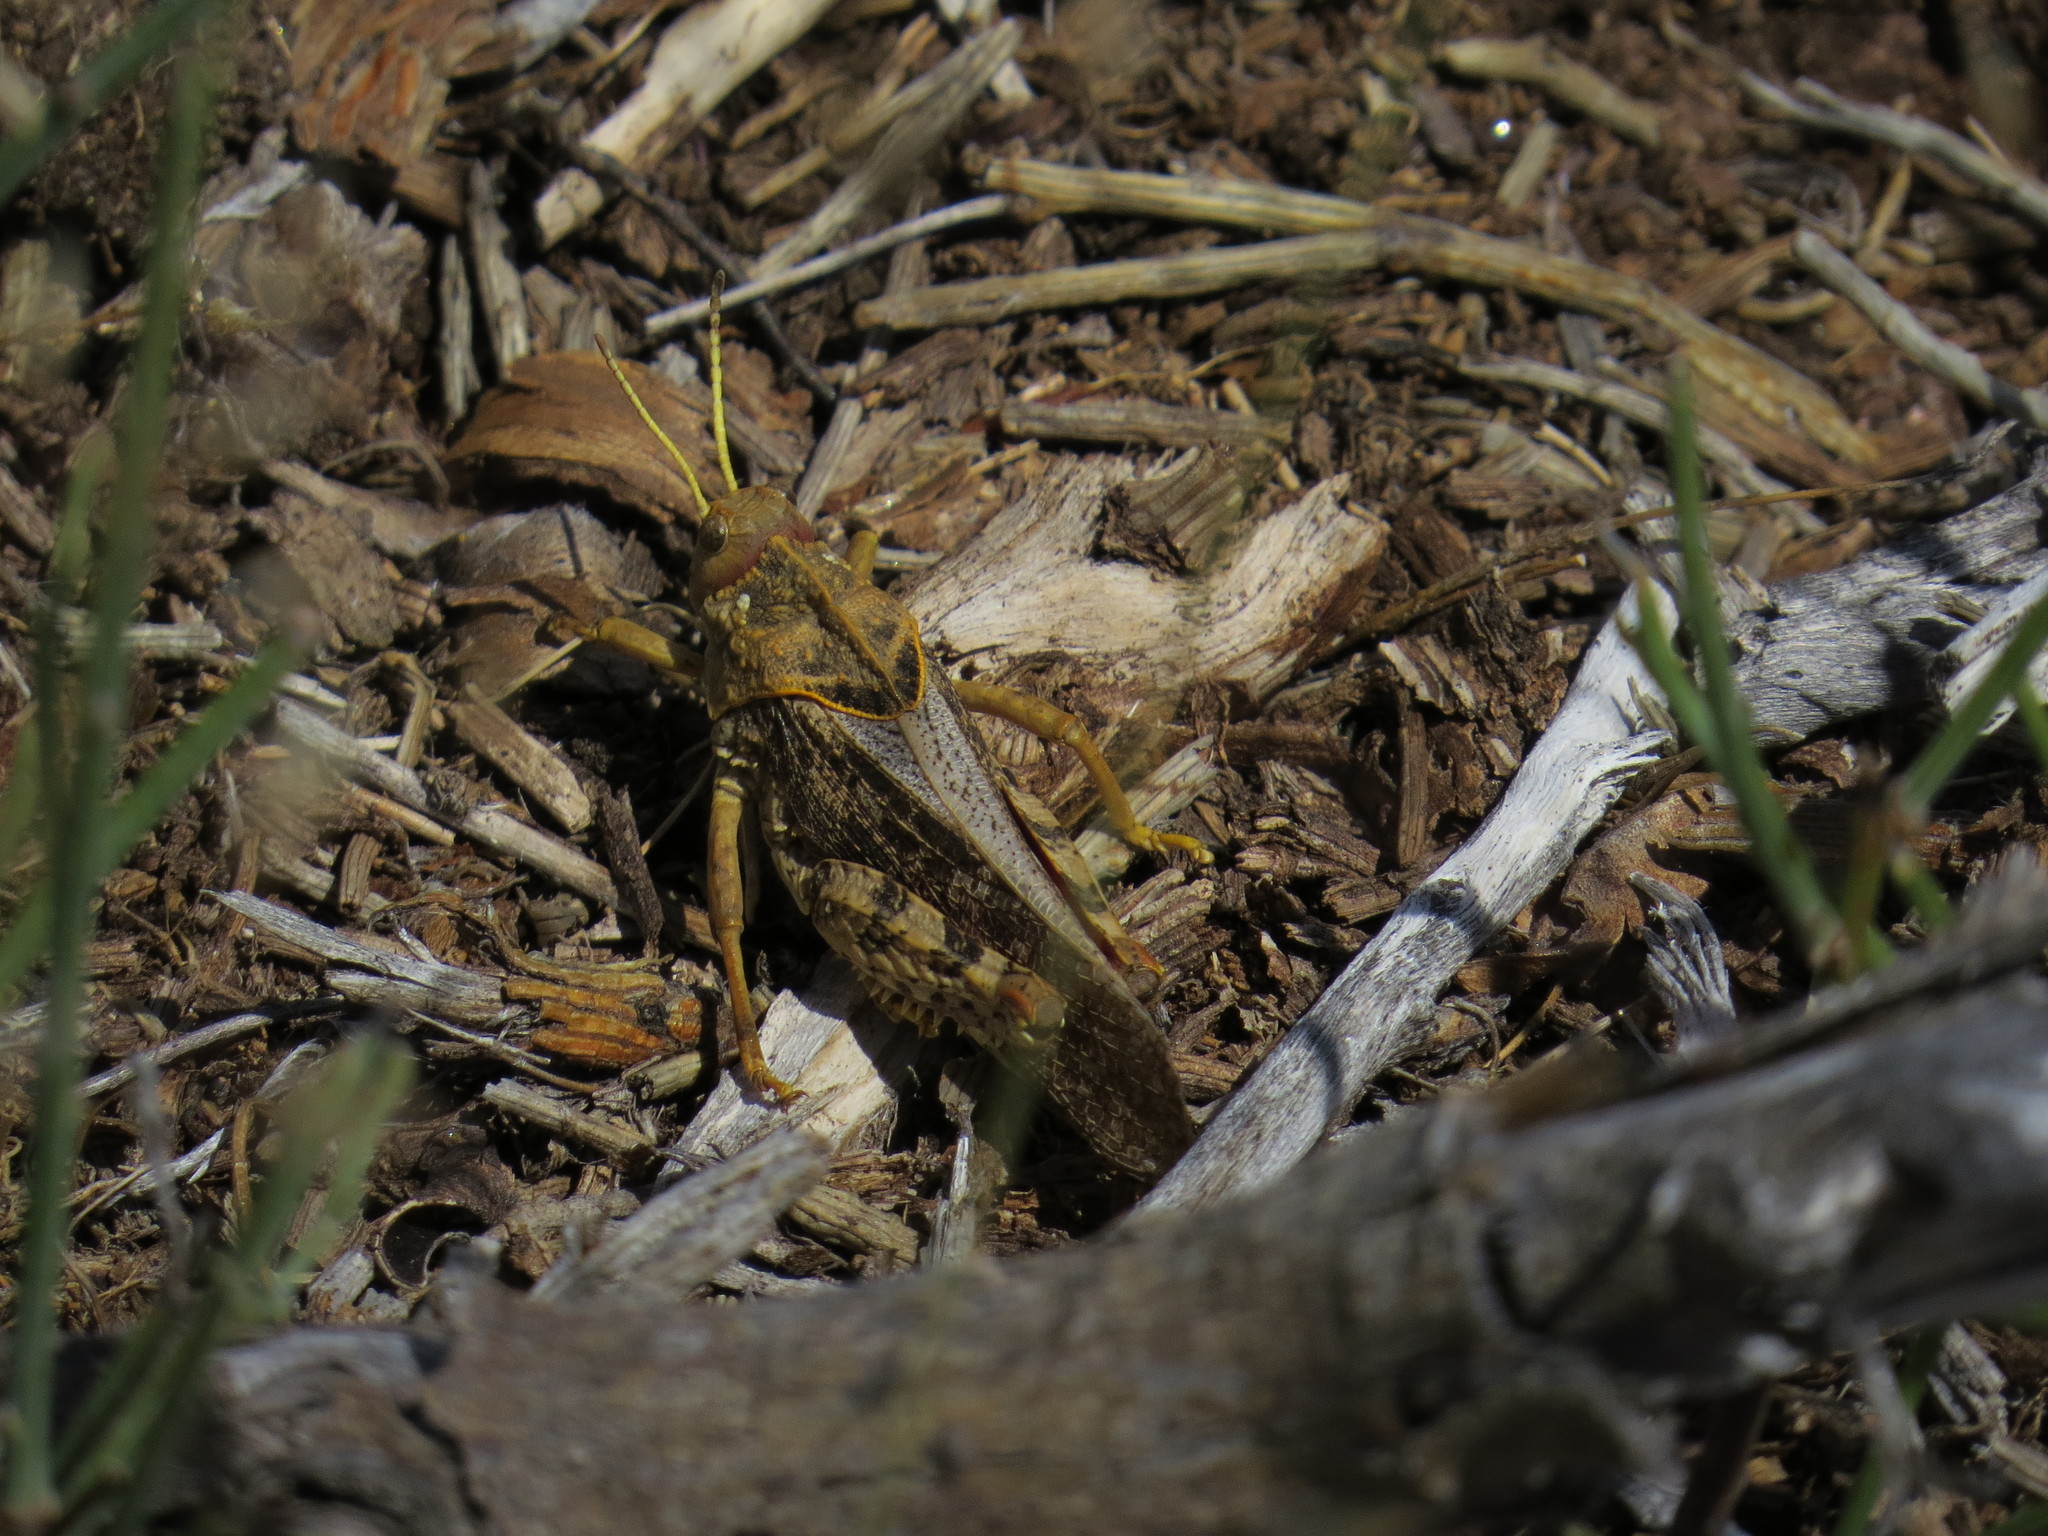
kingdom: Animalia
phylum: Arthropoda
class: Insecta
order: Orthoptera
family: Pamphagidae
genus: Prionotropis
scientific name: Prionotropis flexuosa
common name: Tortuous stone grasshopper
